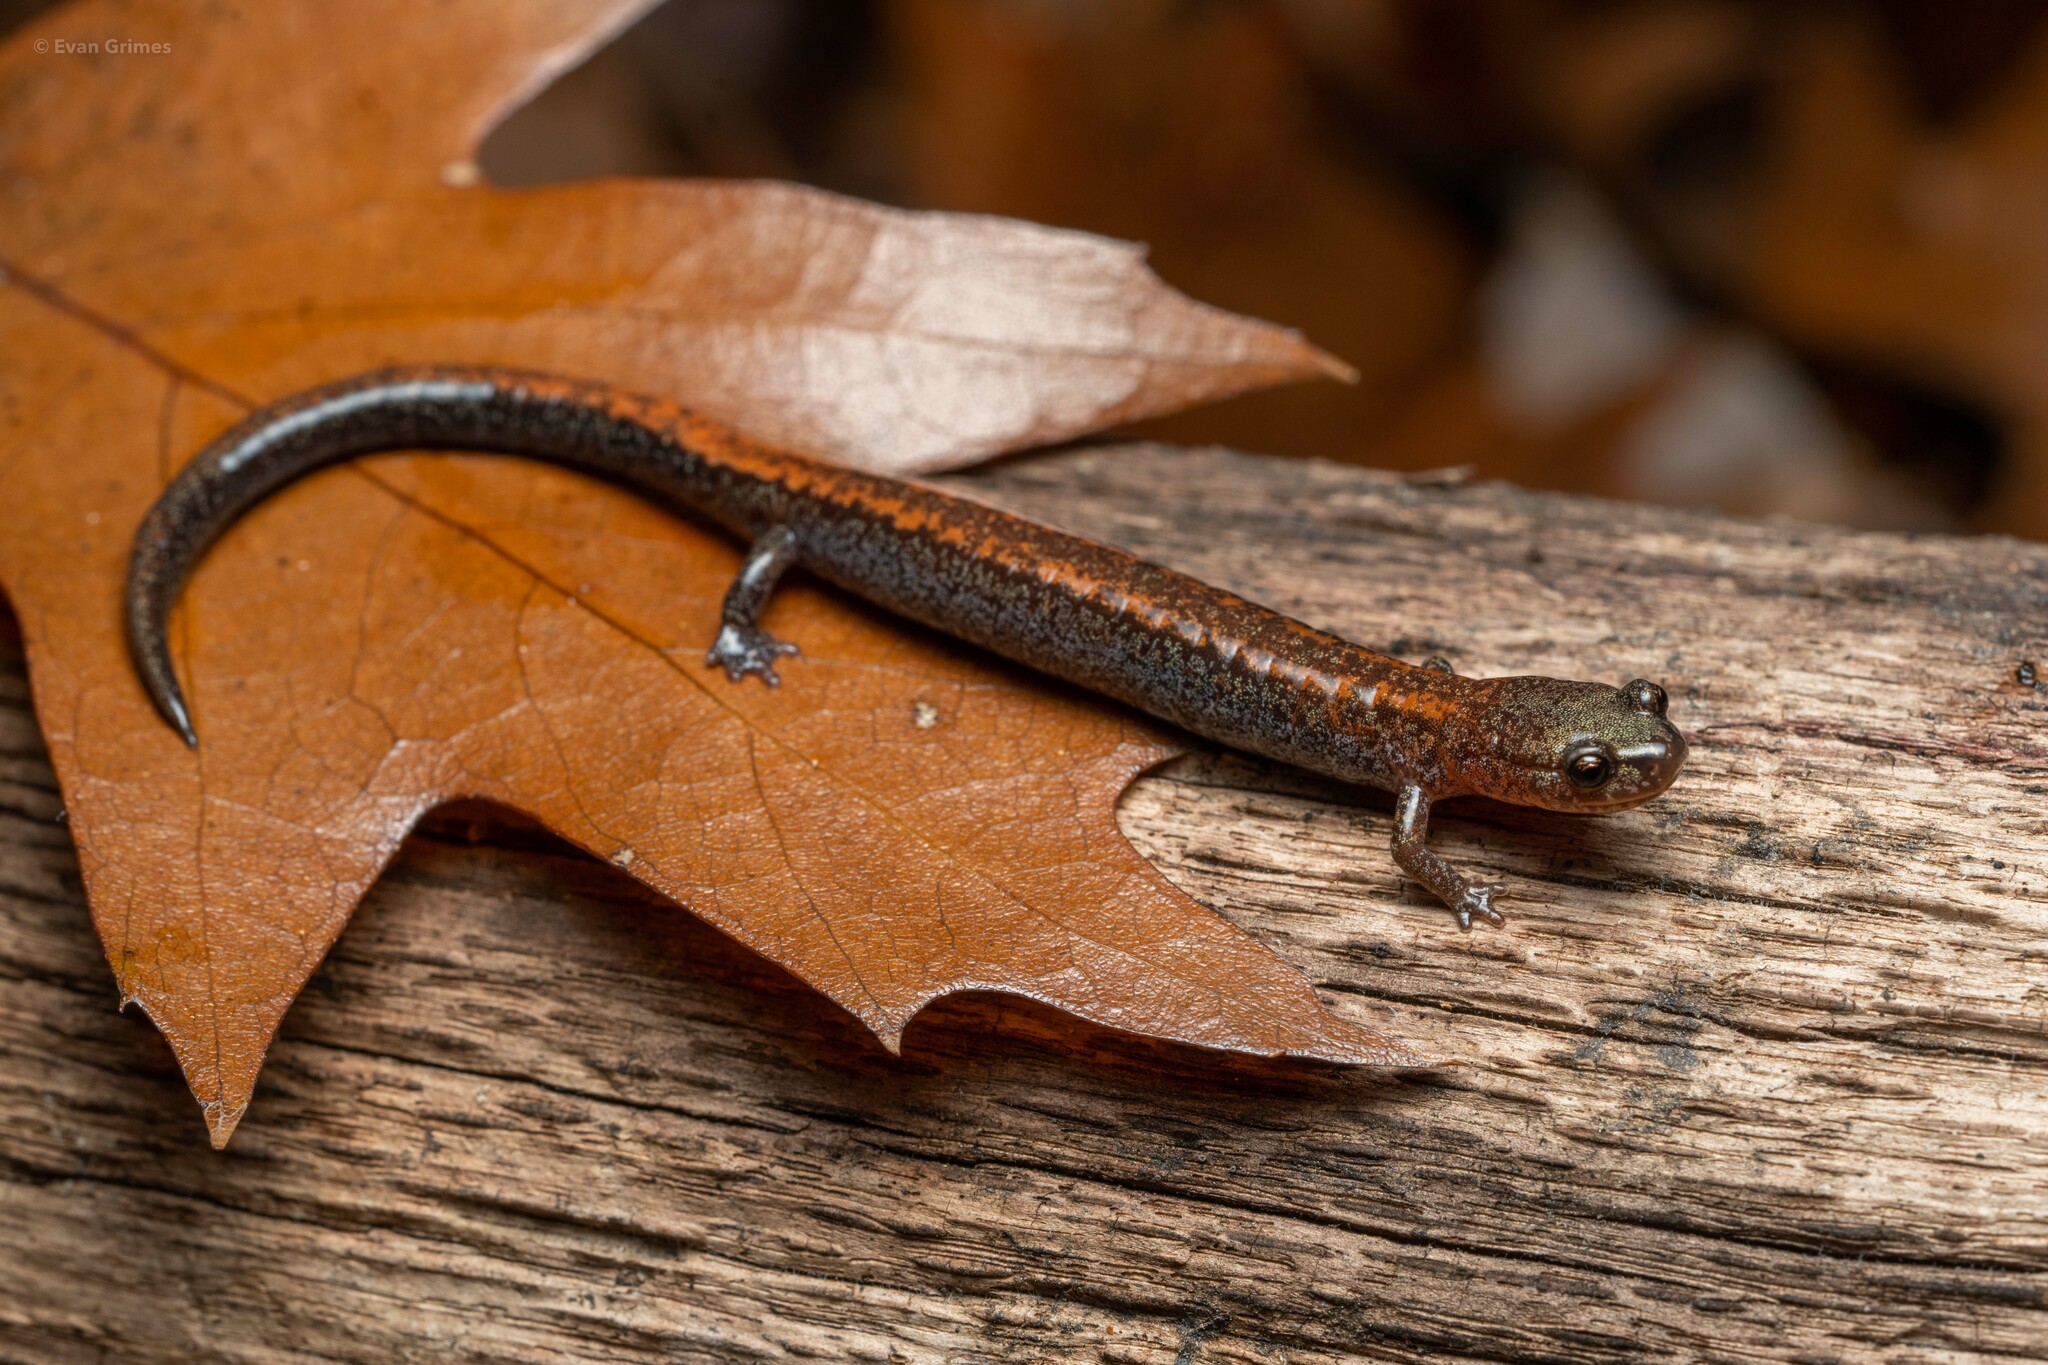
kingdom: Animalia
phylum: Chordata
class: Amphibia
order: Caudata
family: Plethodontidae
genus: Plethodon
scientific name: Plethodon cinereus
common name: Redback salamander
